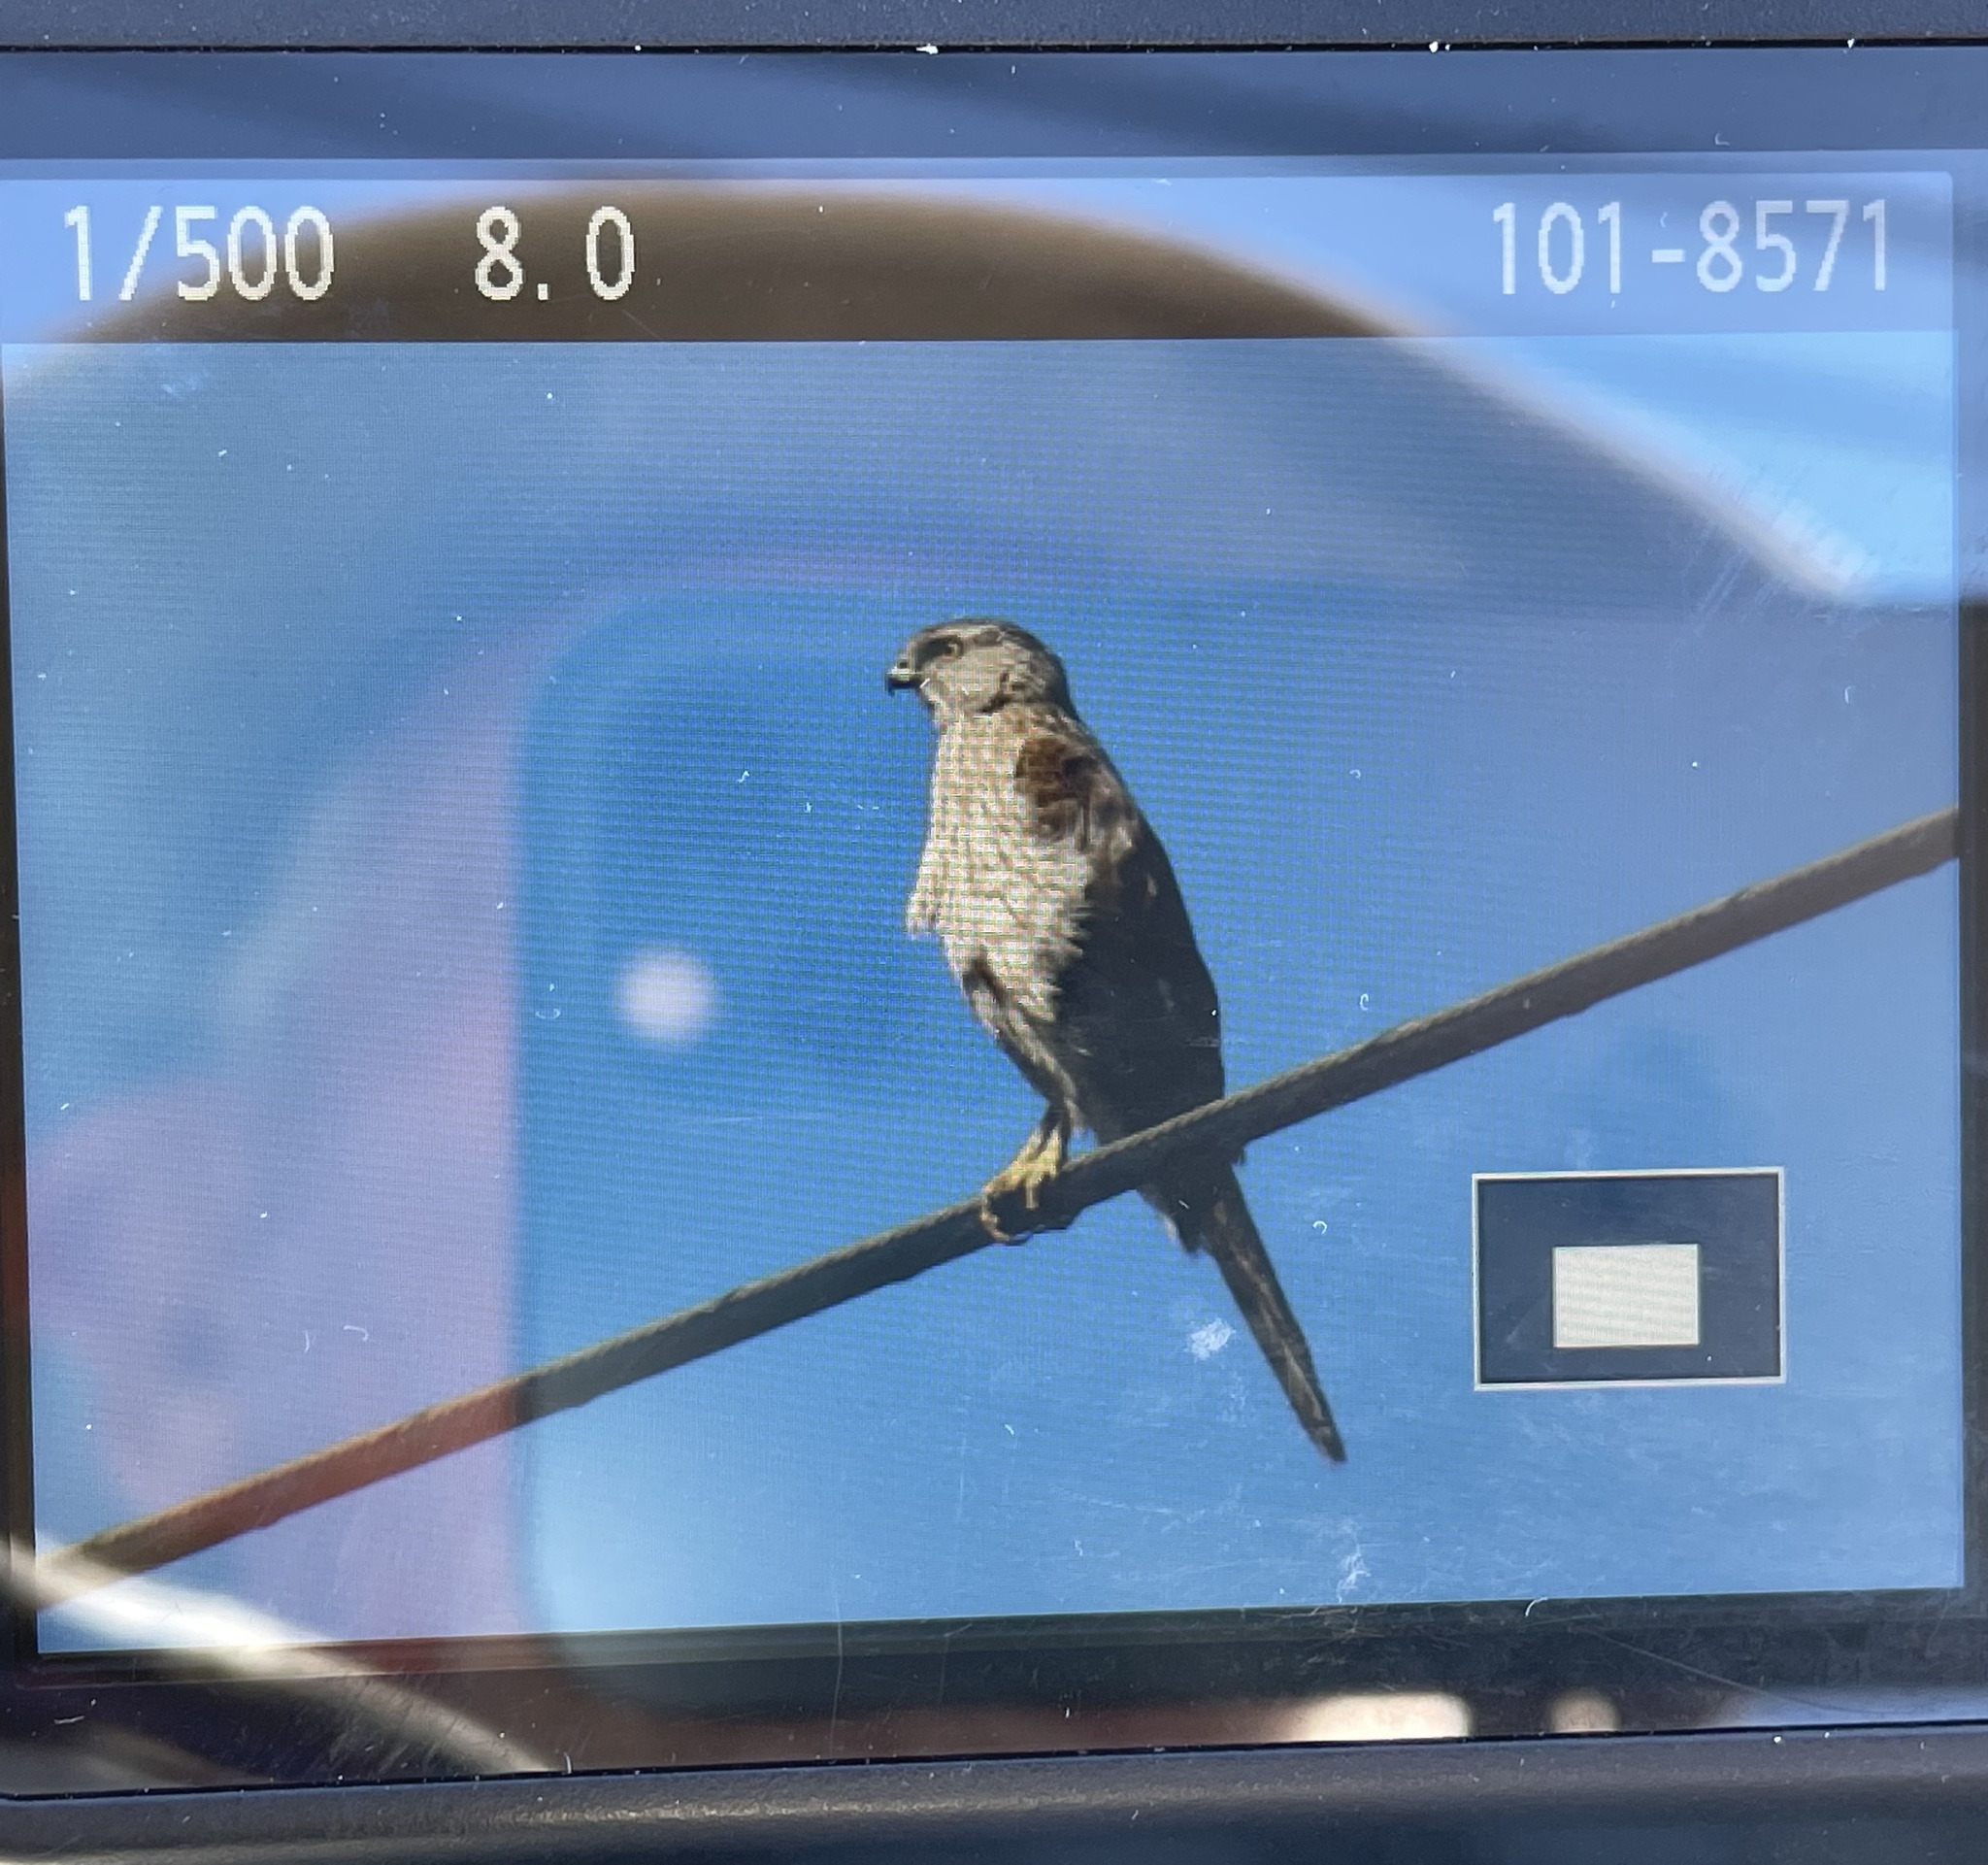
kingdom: Animalia
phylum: Chordata
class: Aves
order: Accipitriformes
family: Accipitridae
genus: Accipiter
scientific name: Accipiter cooperii
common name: Cooper's hawk
